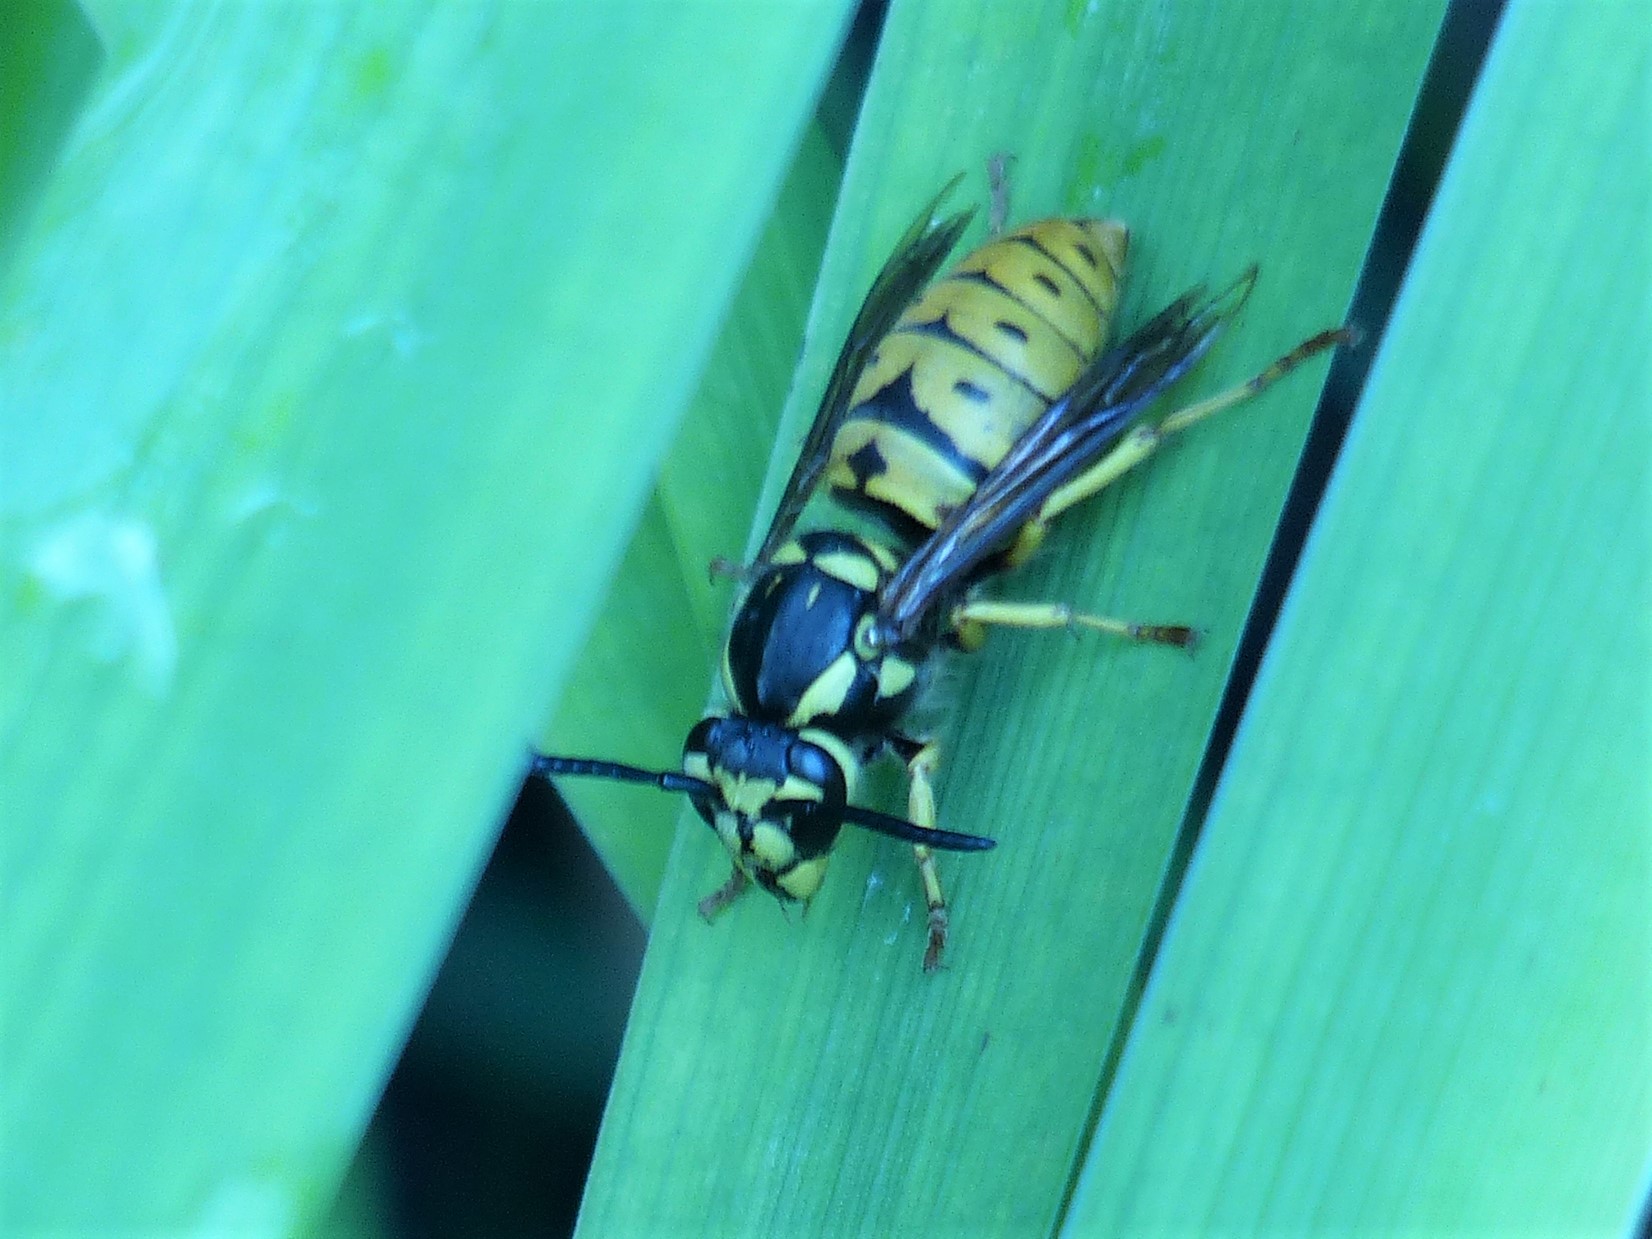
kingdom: Animalia
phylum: Arthropoda
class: Insecta
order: Hymenoptera
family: Vespidae
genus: Vespula
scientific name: Vespula maculifrons
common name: Eastern yellowjacket
